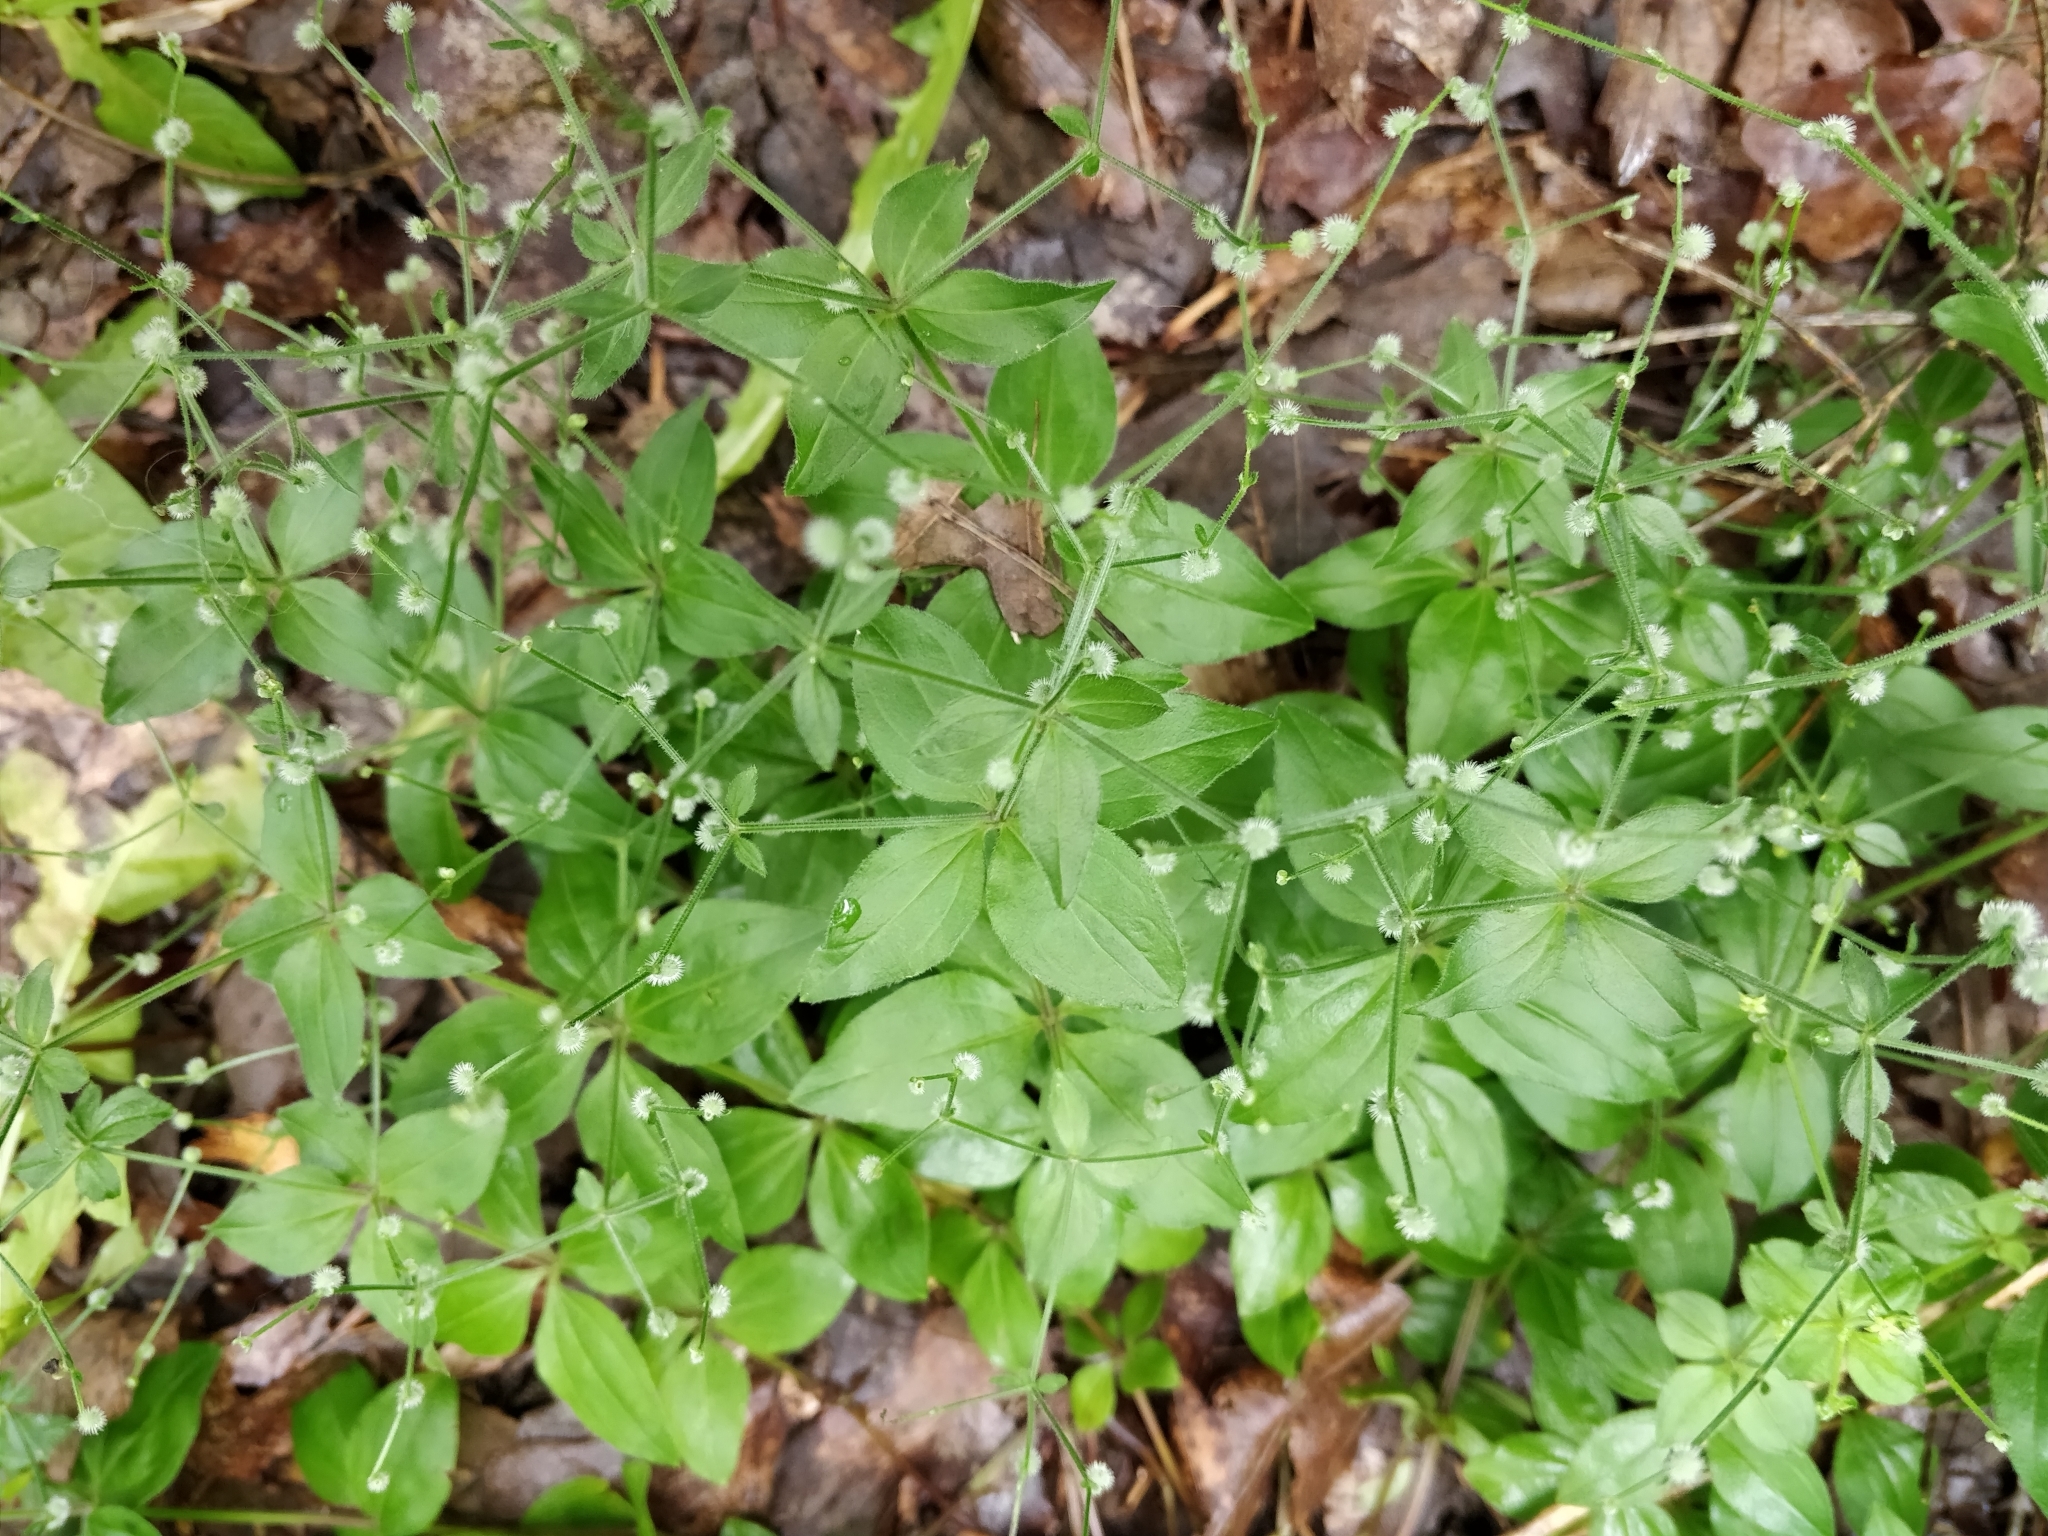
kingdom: Plantae
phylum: Tracheophyta
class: Magnoliopsida
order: Gentianales
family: Rubiaceae
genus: Galium
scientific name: Galium circaezans
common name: Forest bedstraw
